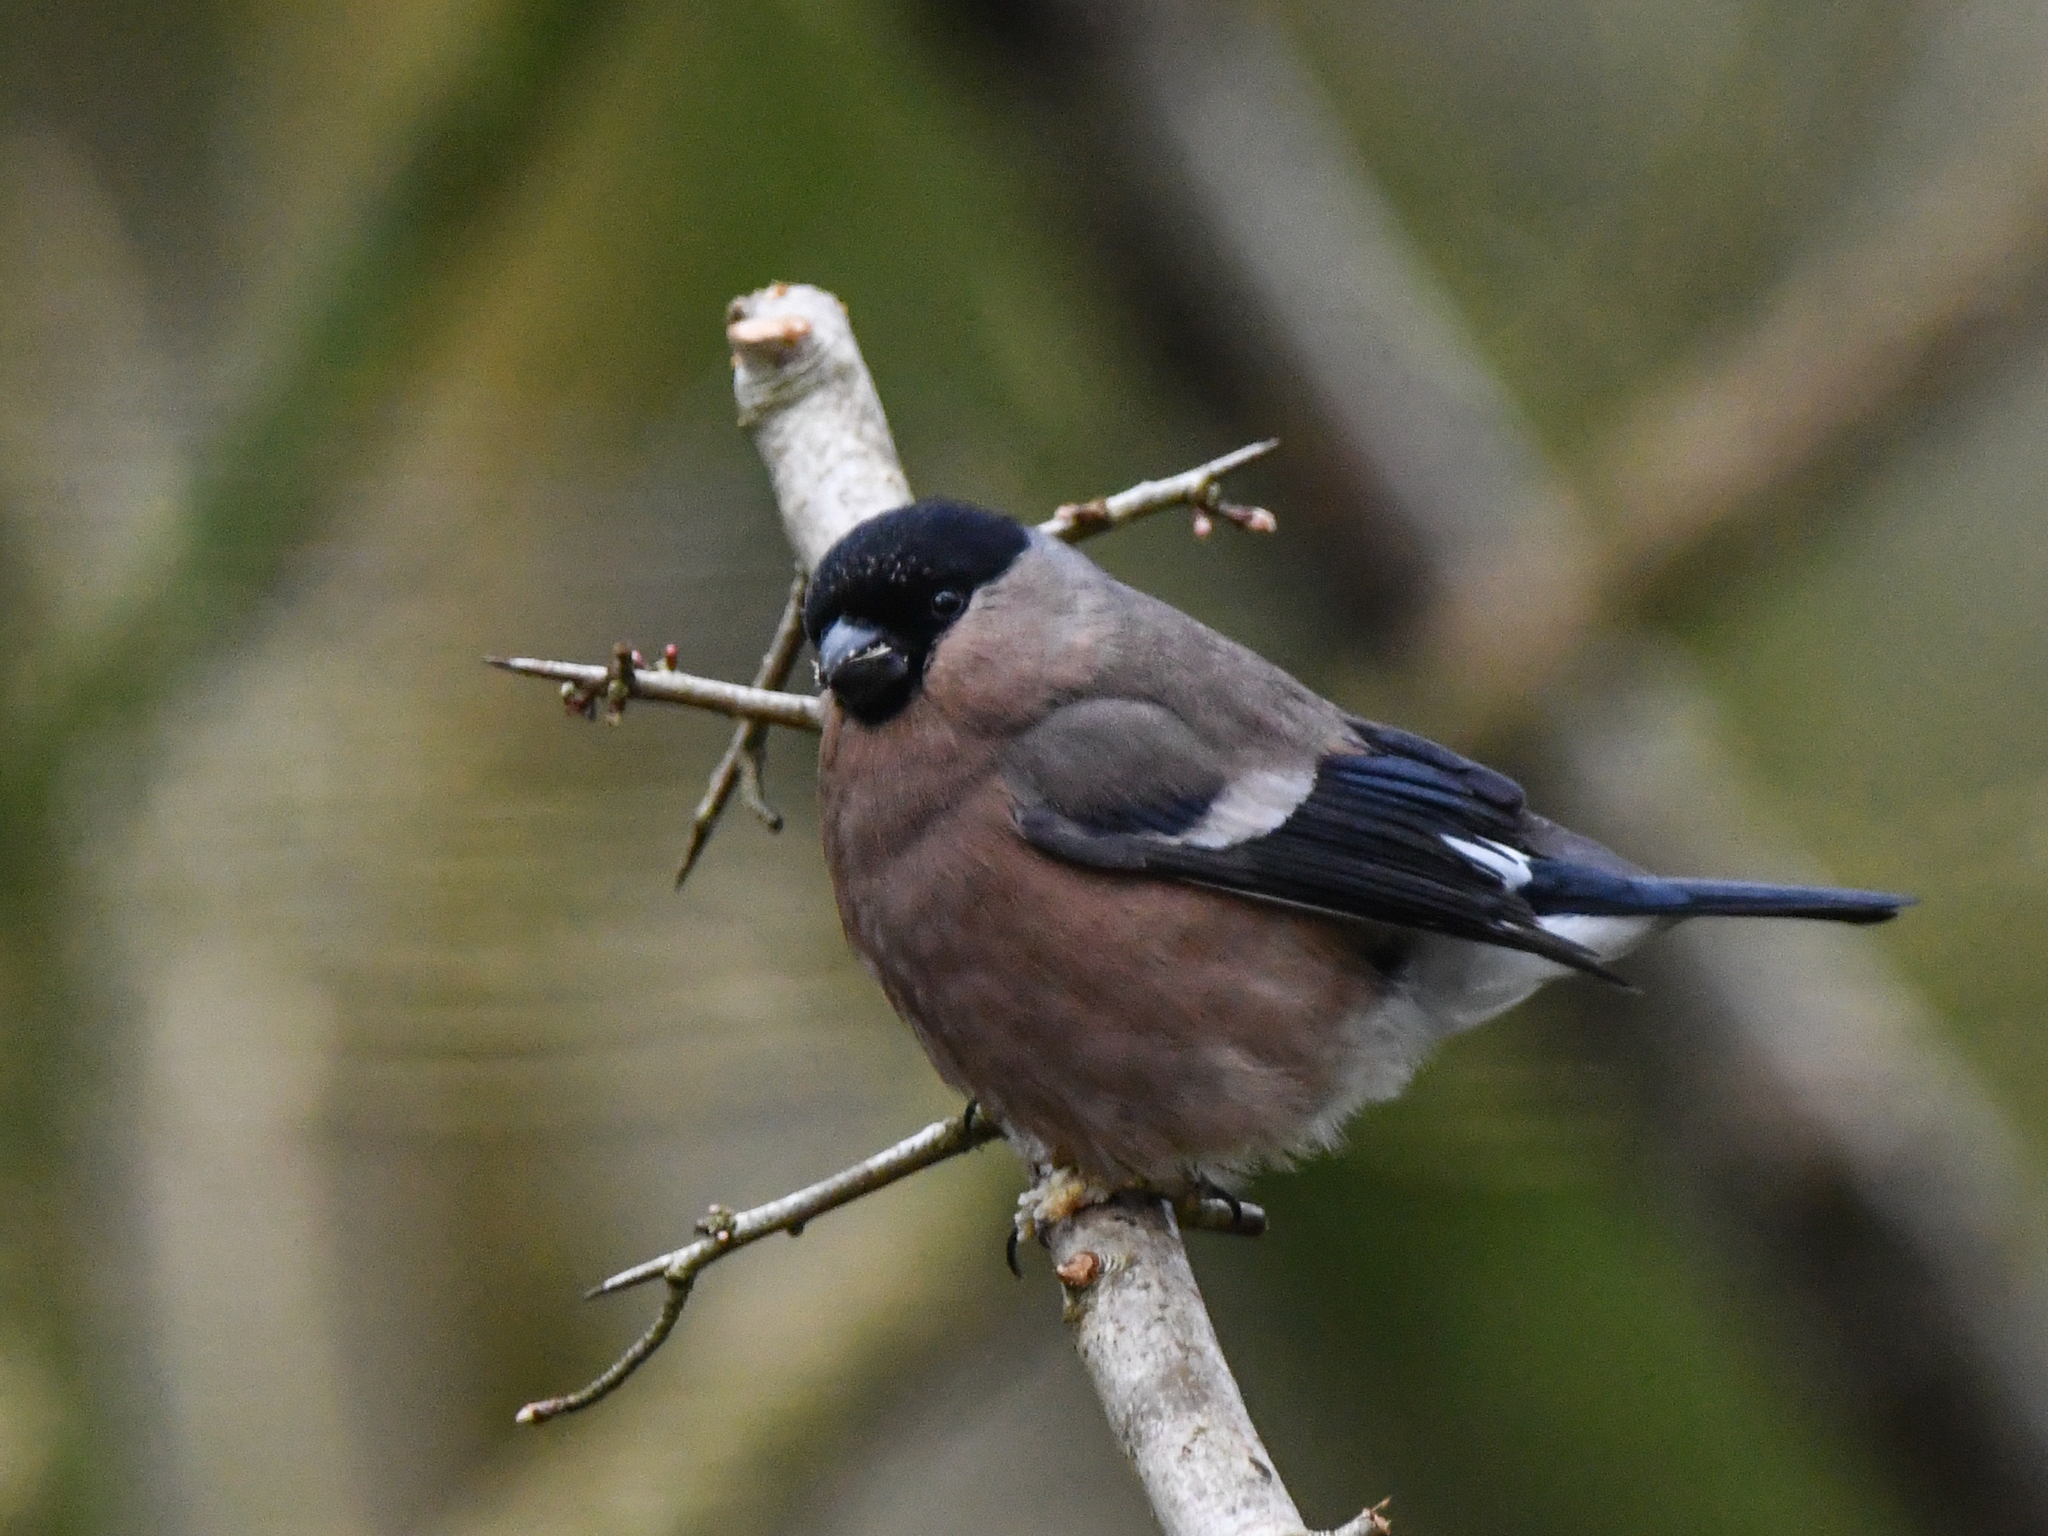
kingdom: Animalia
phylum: Chordata
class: Aves
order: Passeriformes
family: Fringillidae
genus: Pyrrhula
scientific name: Pyrrhula pyrrhula
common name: Eurasian bullfinch
